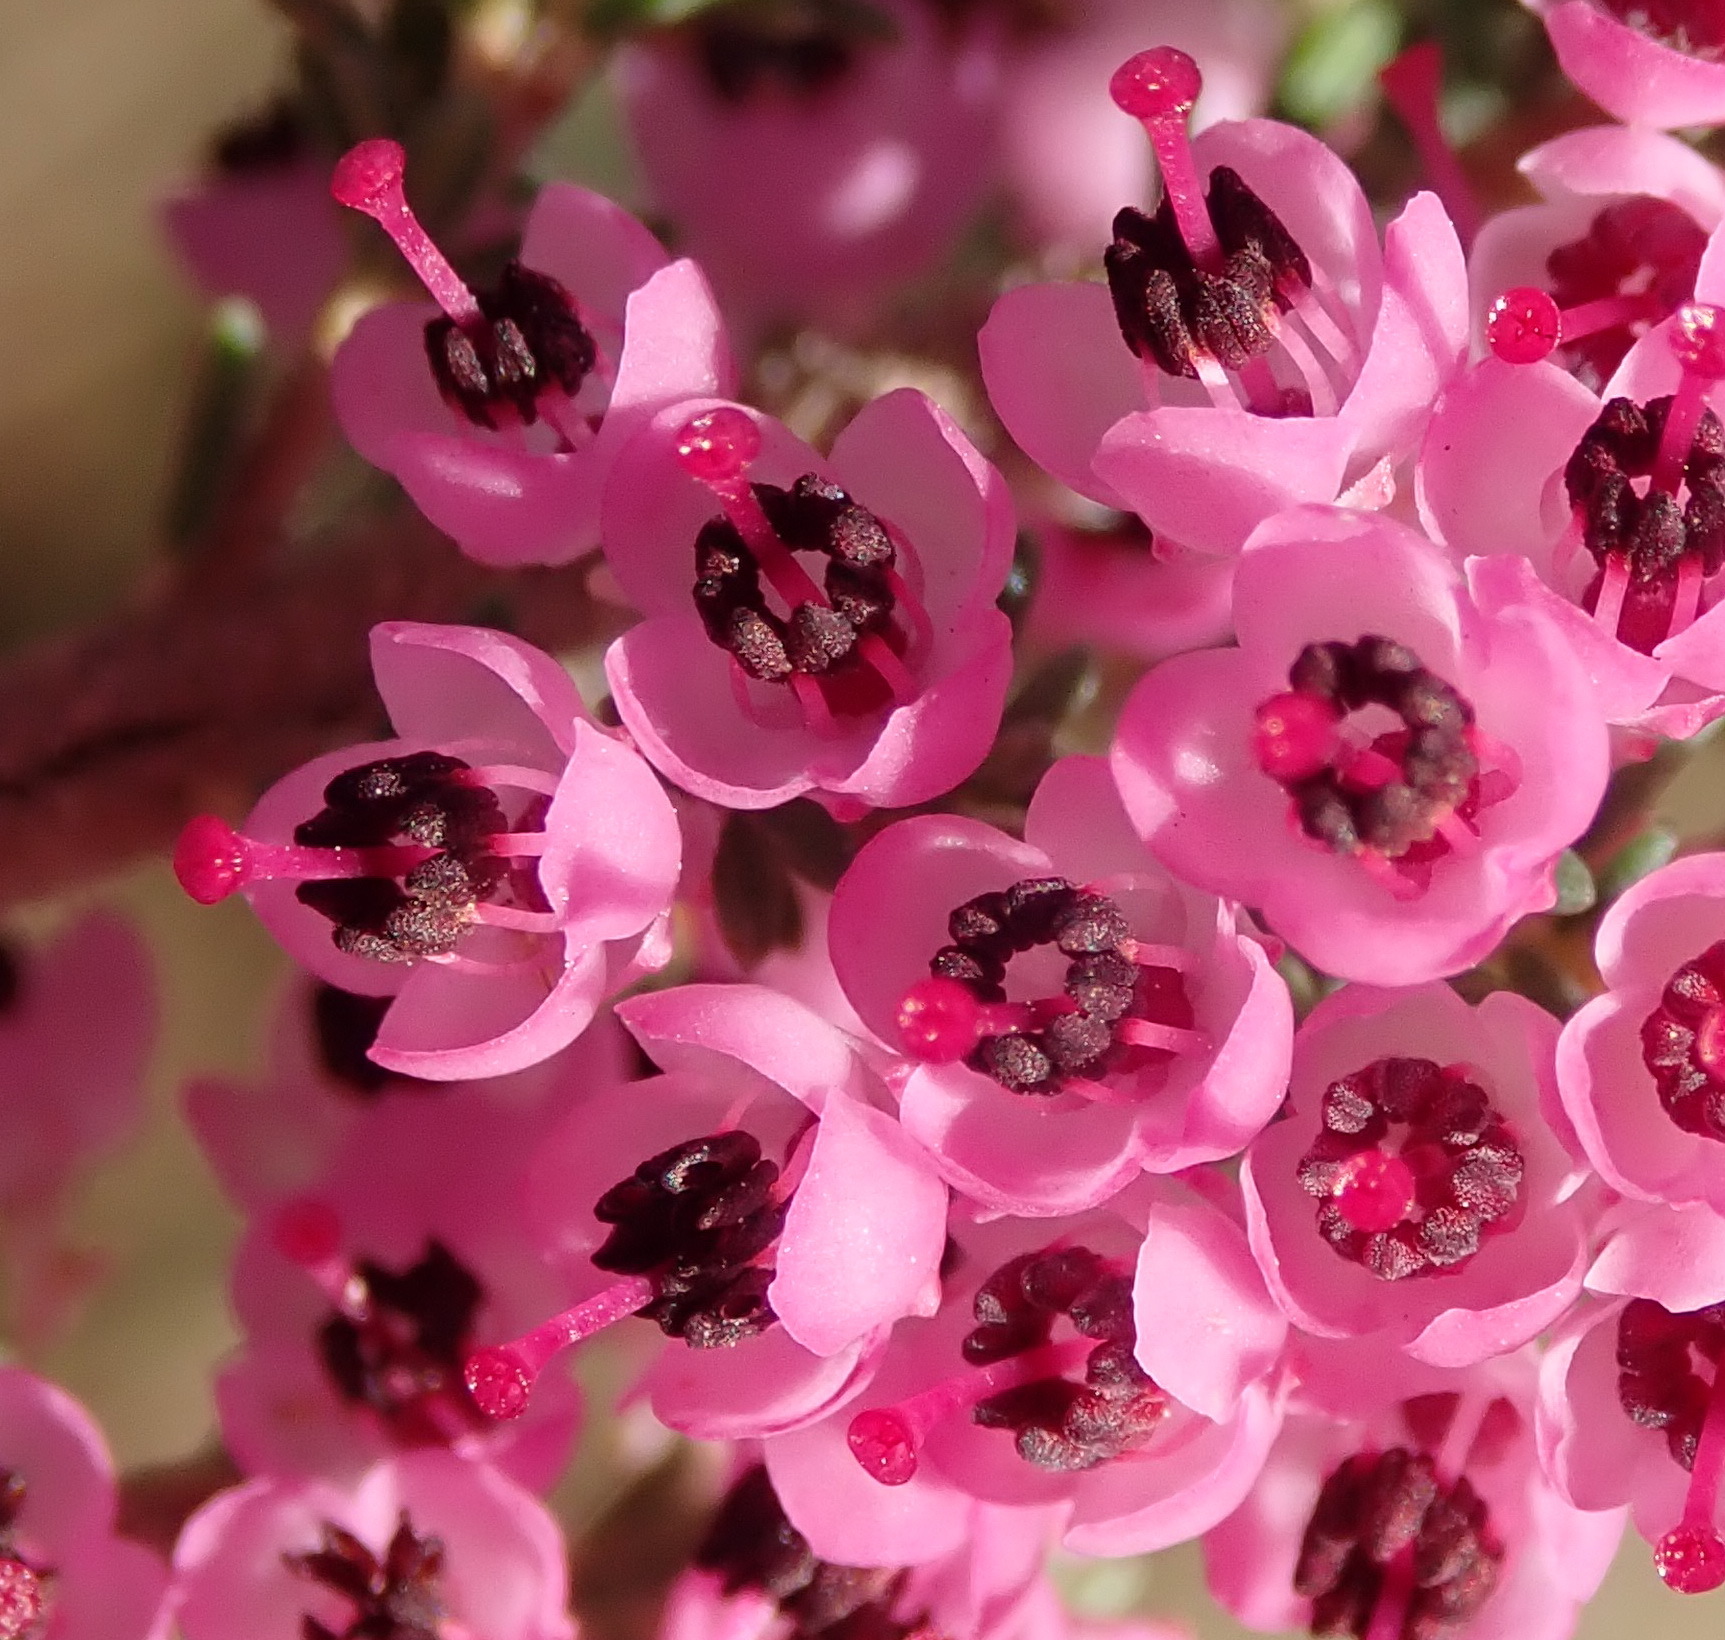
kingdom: Plantae
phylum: Tracheophyta
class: Magnoliopsida
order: Ericales
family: Ericaceae
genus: Erica
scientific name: Erica sparsa
